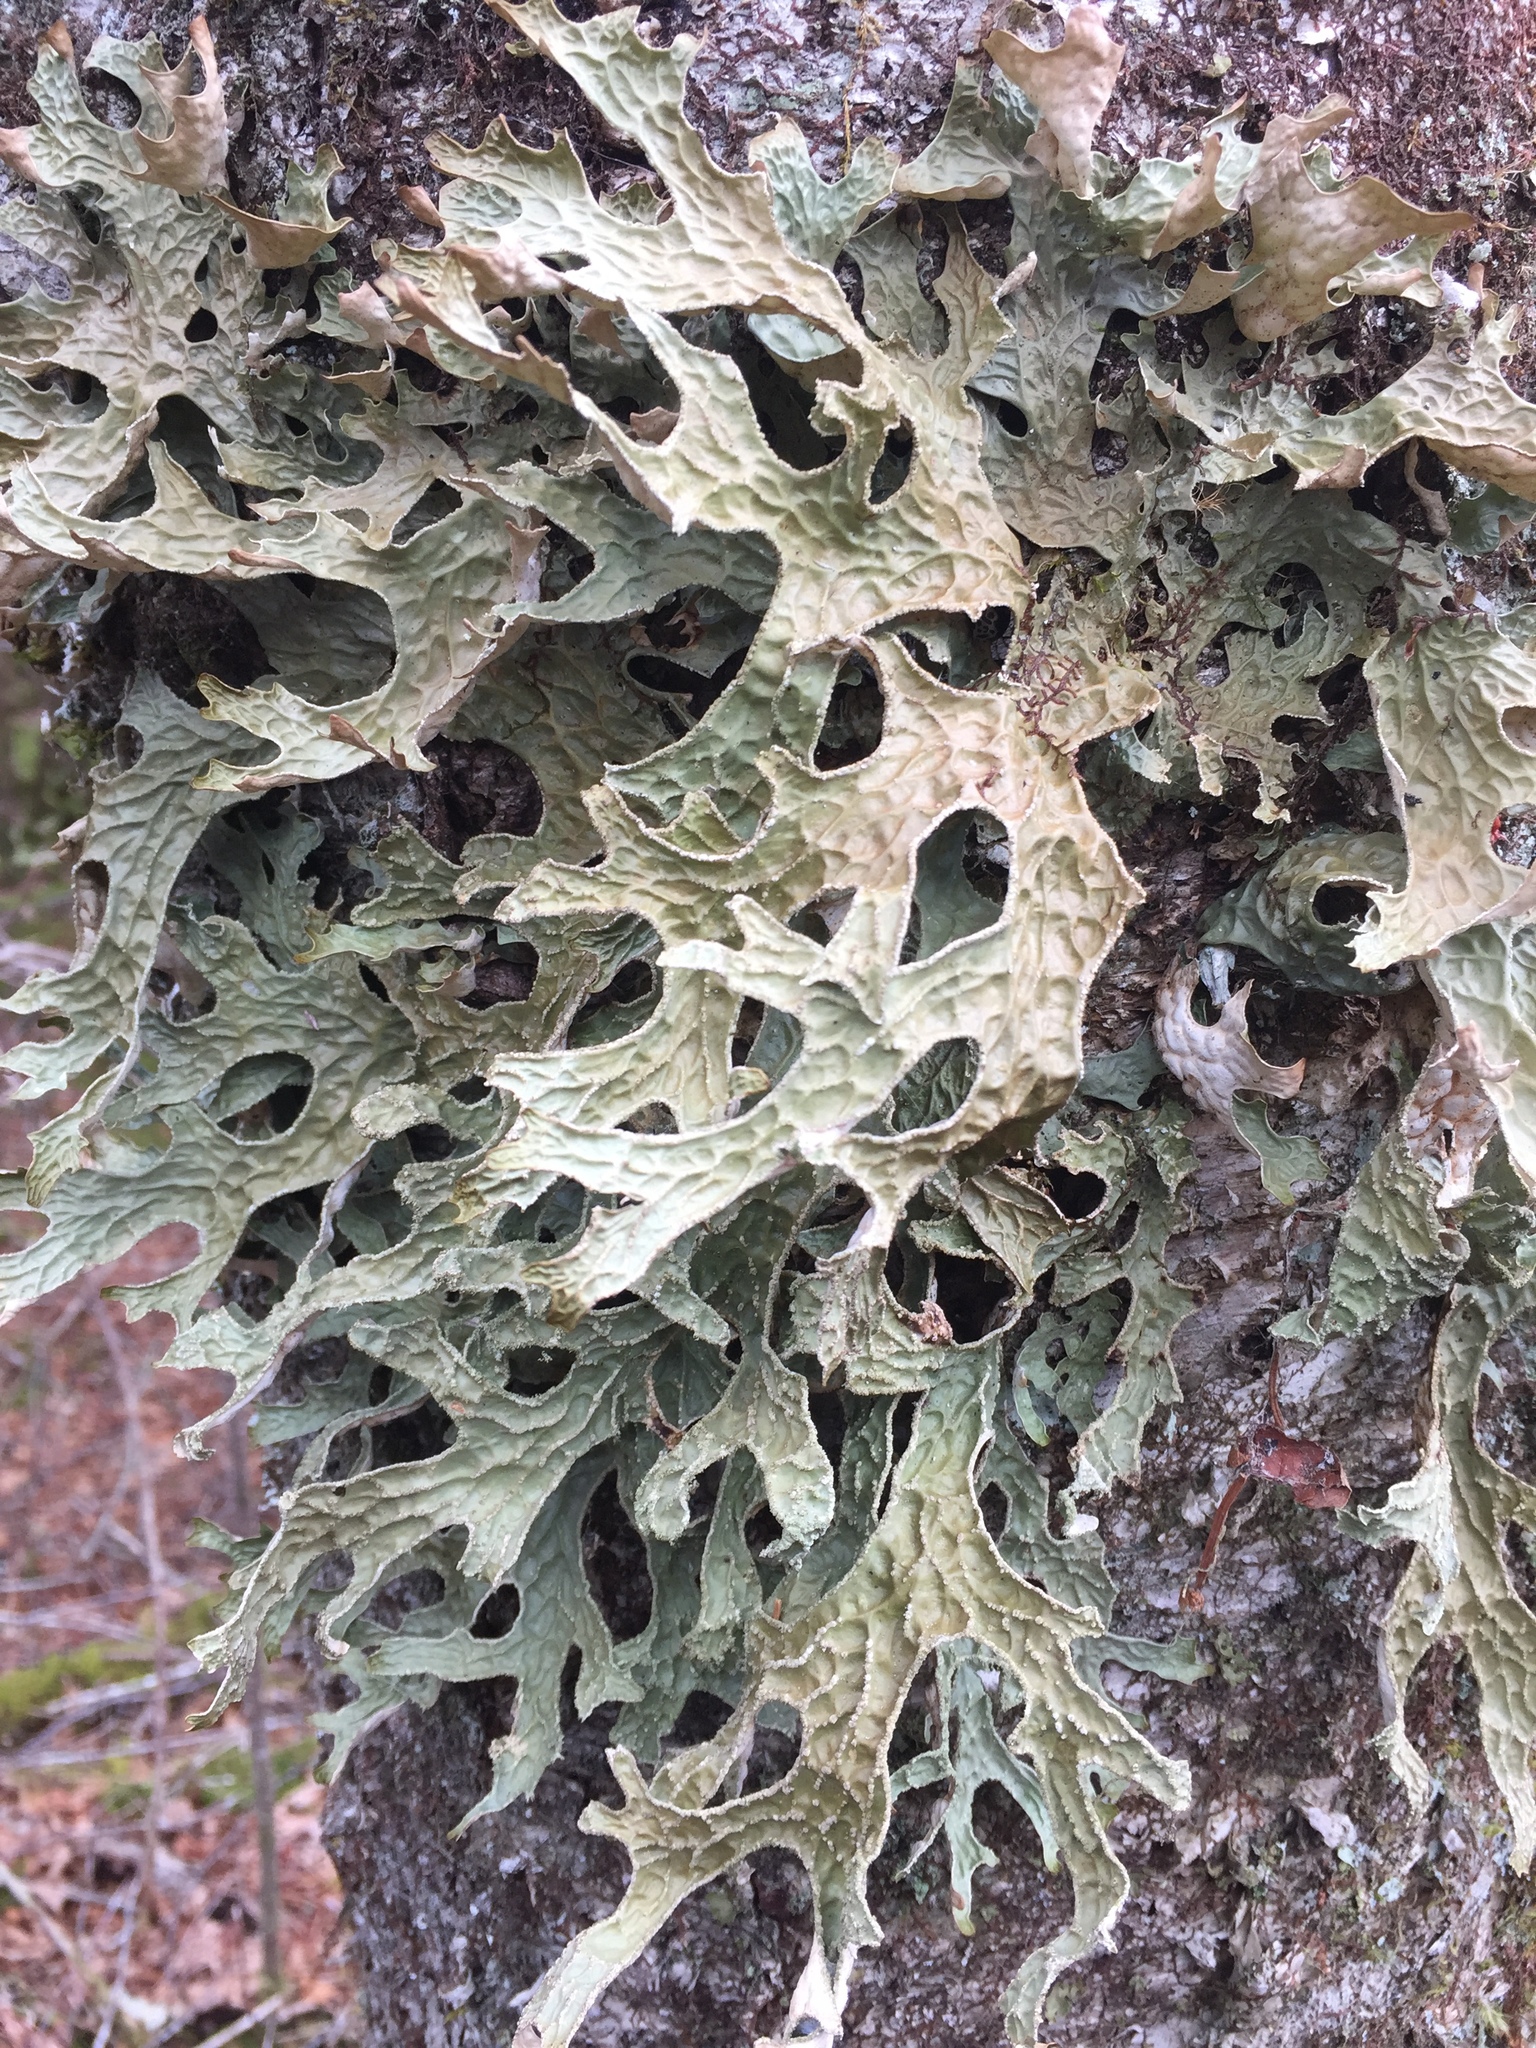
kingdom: Fungi
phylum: Ascomycota
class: Lecanoromycetes
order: Peltigerales
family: Lobariaceae
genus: Lobaria
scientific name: Lobaria pulmonaria
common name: Lungwort
